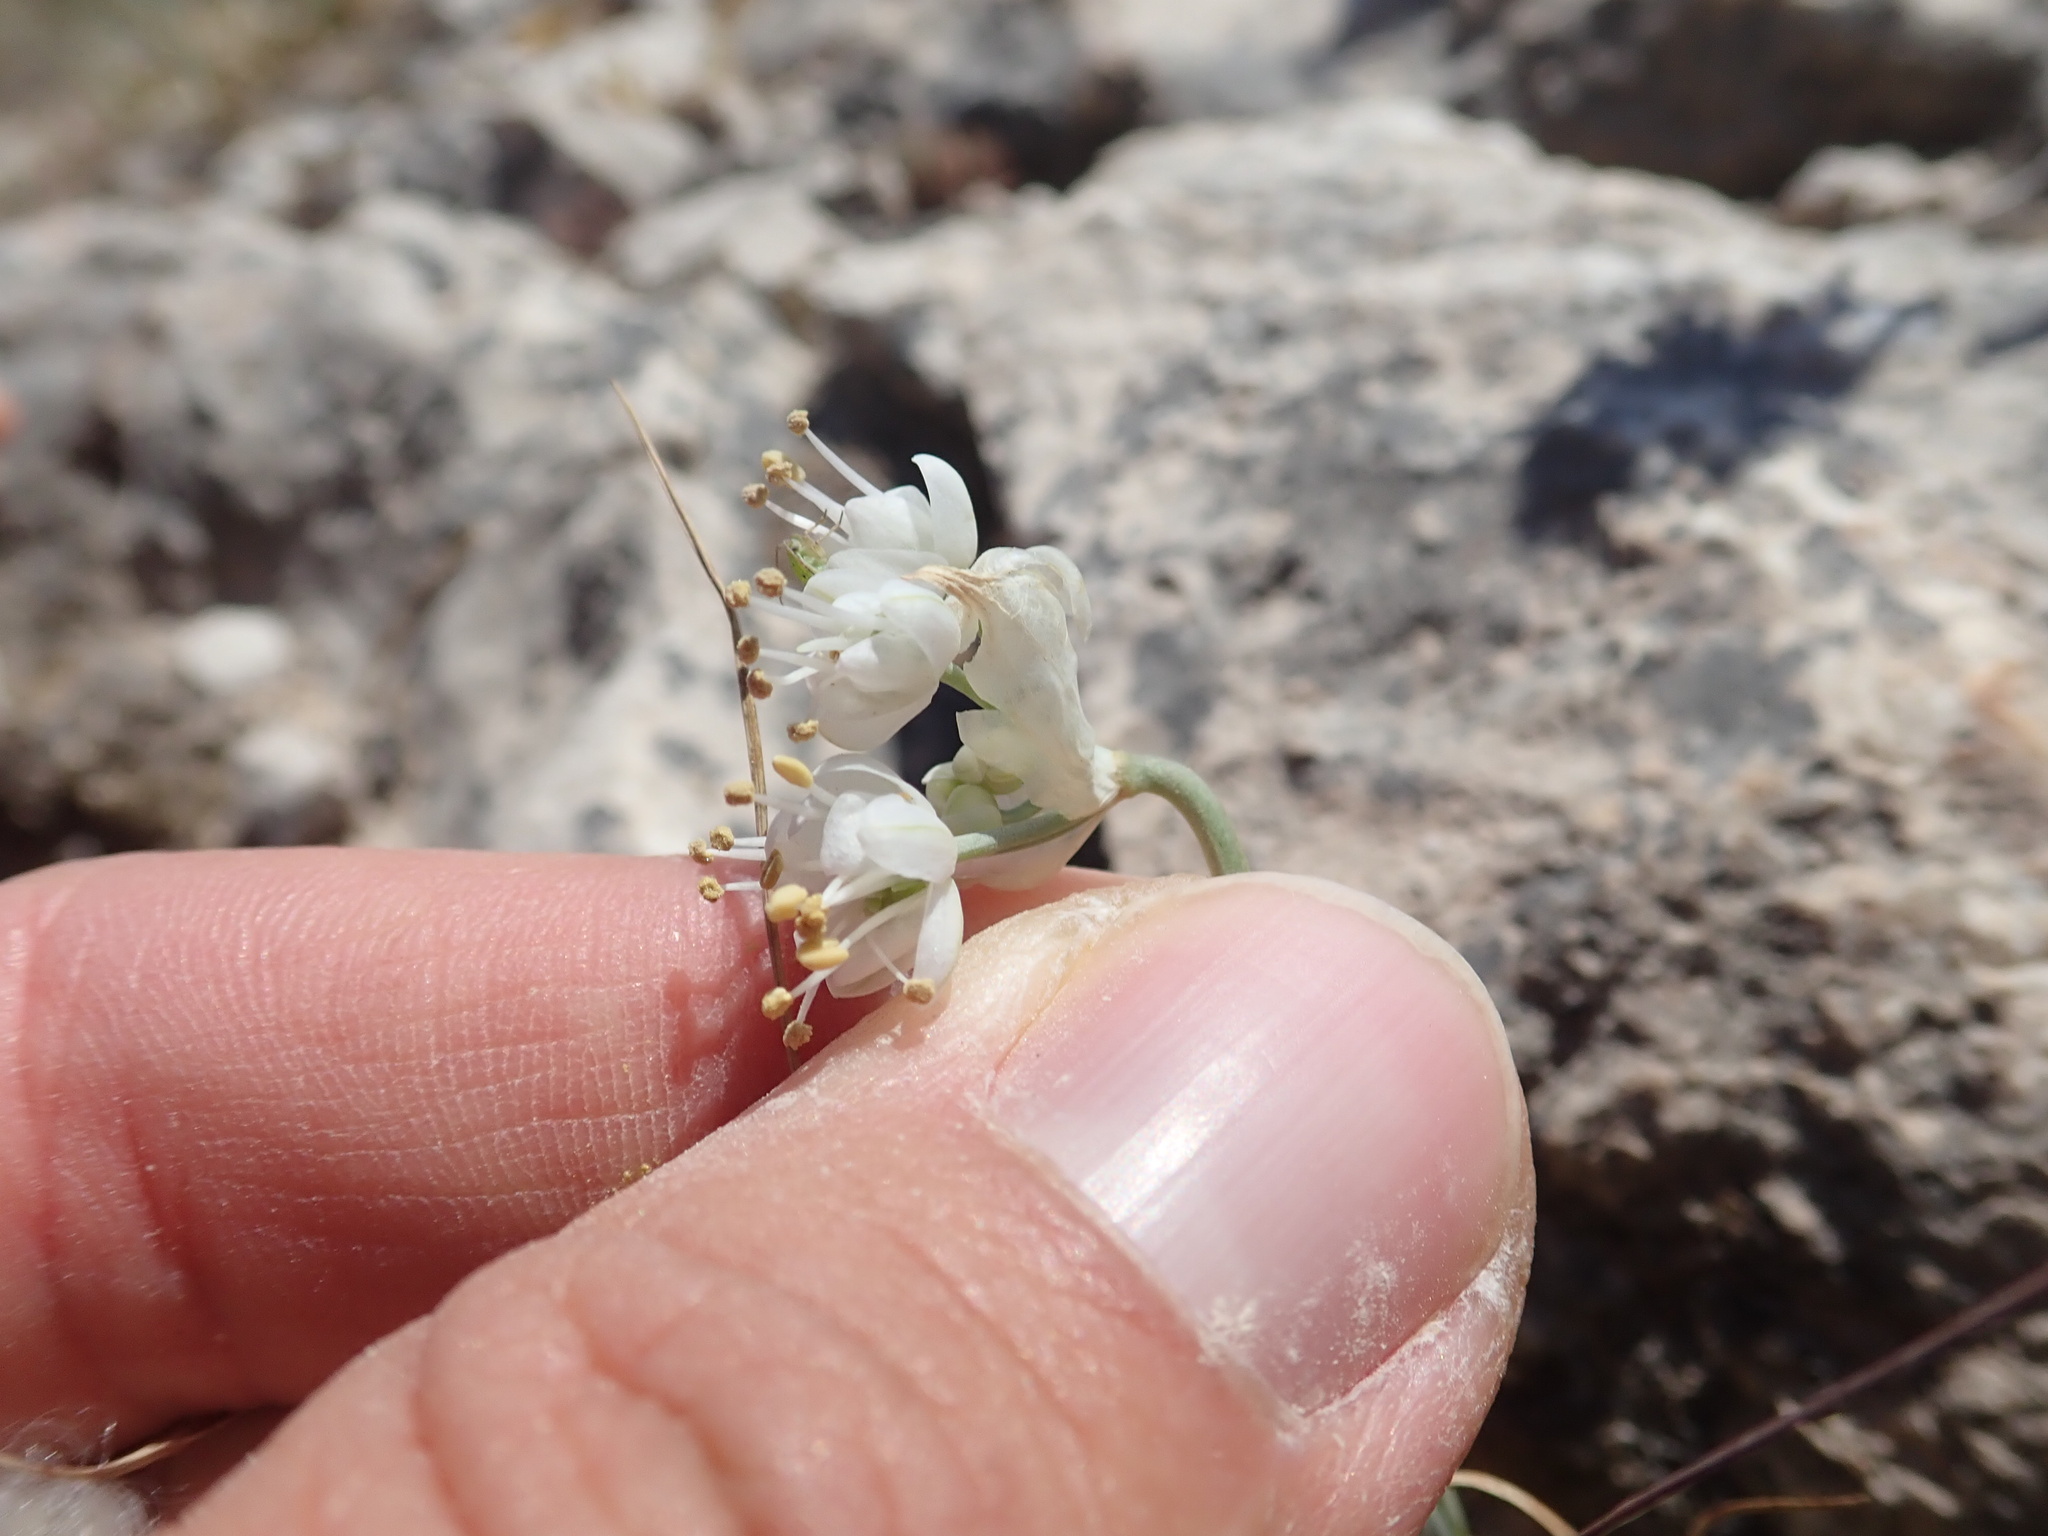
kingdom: Plantae
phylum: Tracheophyta
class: Liliopsida
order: Asparagales
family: Amaryllidaceae
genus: Allium
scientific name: Allium cernuum
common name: Nodding onion
